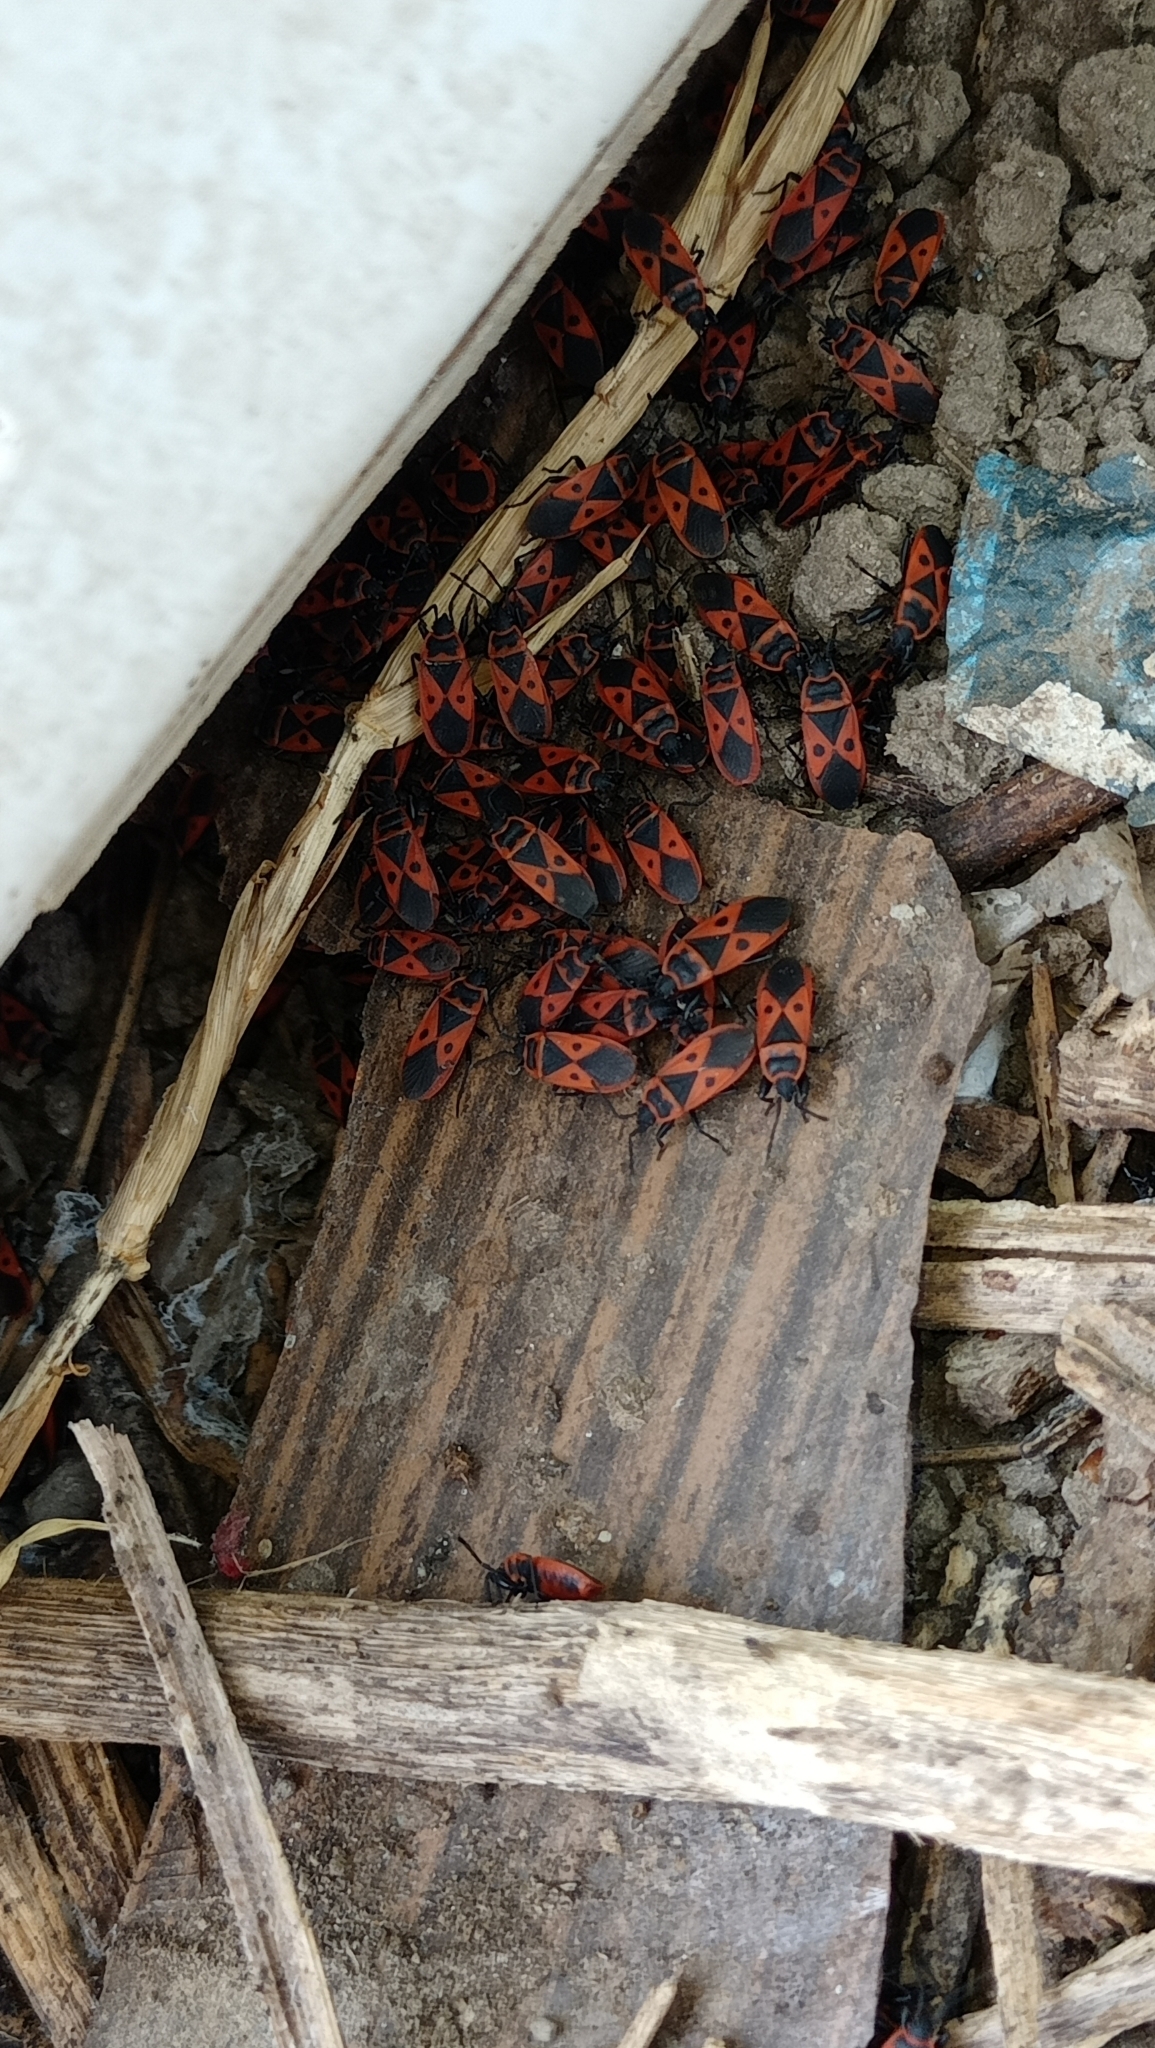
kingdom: Animalia
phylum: Arthropoda
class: Insecta
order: Hemiptera
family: Pyrrhocoridae
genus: Scantius
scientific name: Scantius aegyptius
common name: Red bug
